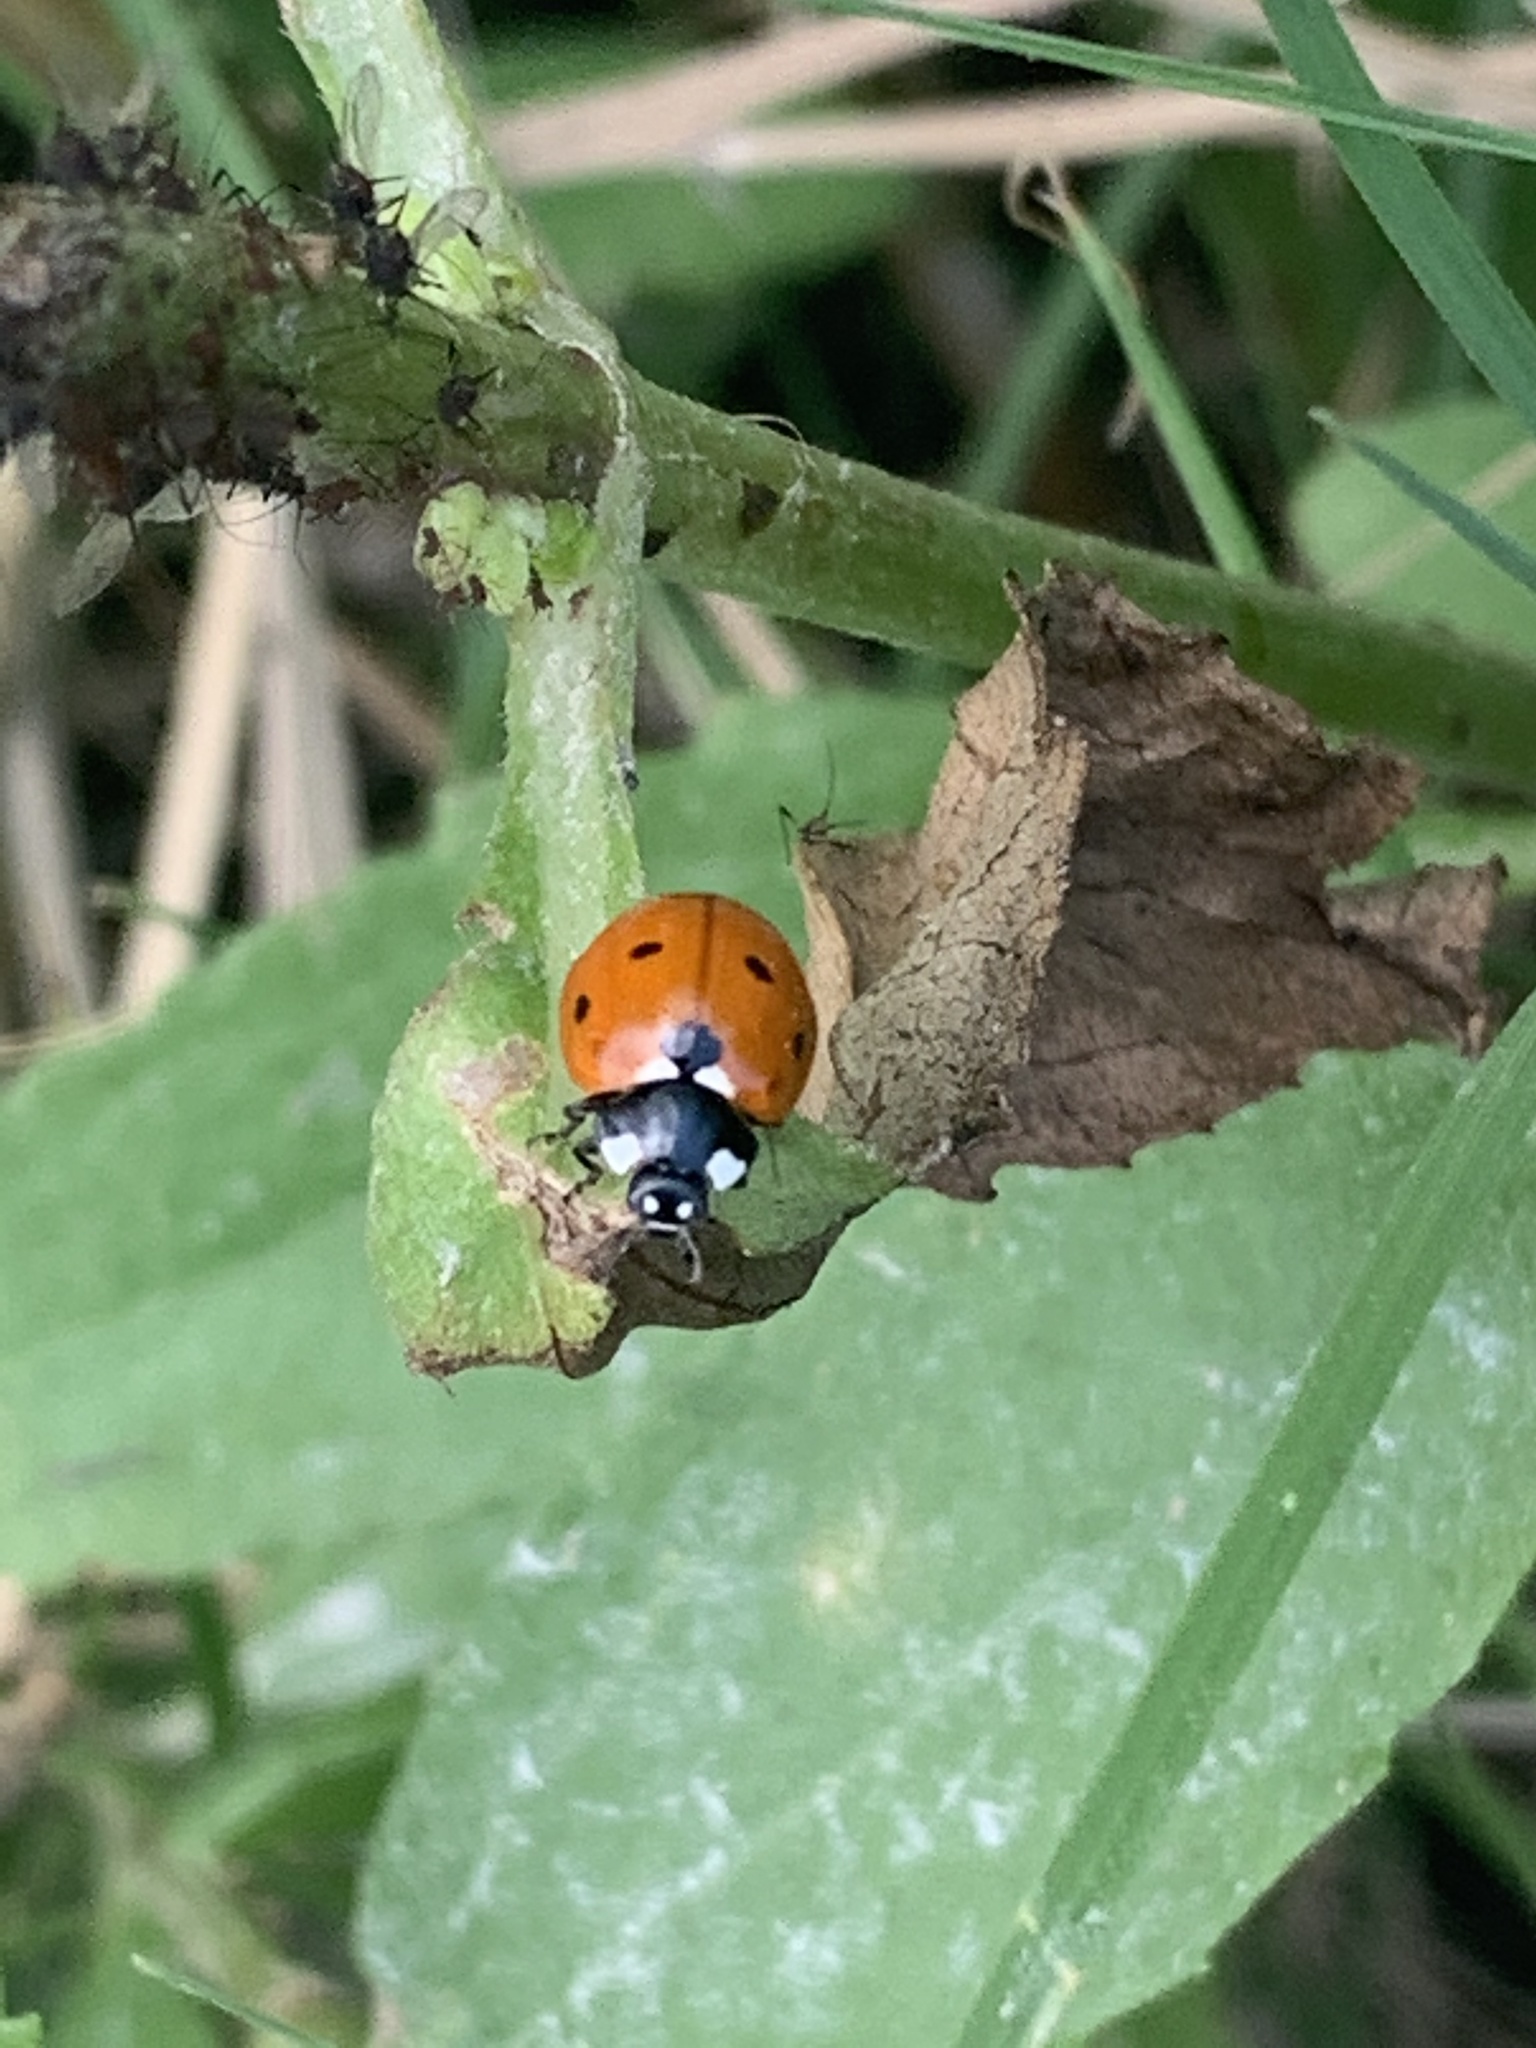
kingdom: Animalia
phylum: Arthropoda
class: Insecta
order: Coleoptera
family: Coccinellidae
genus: Coccinella
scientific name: Coccinella septempunctata
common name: Sevenspotted lady beetle
